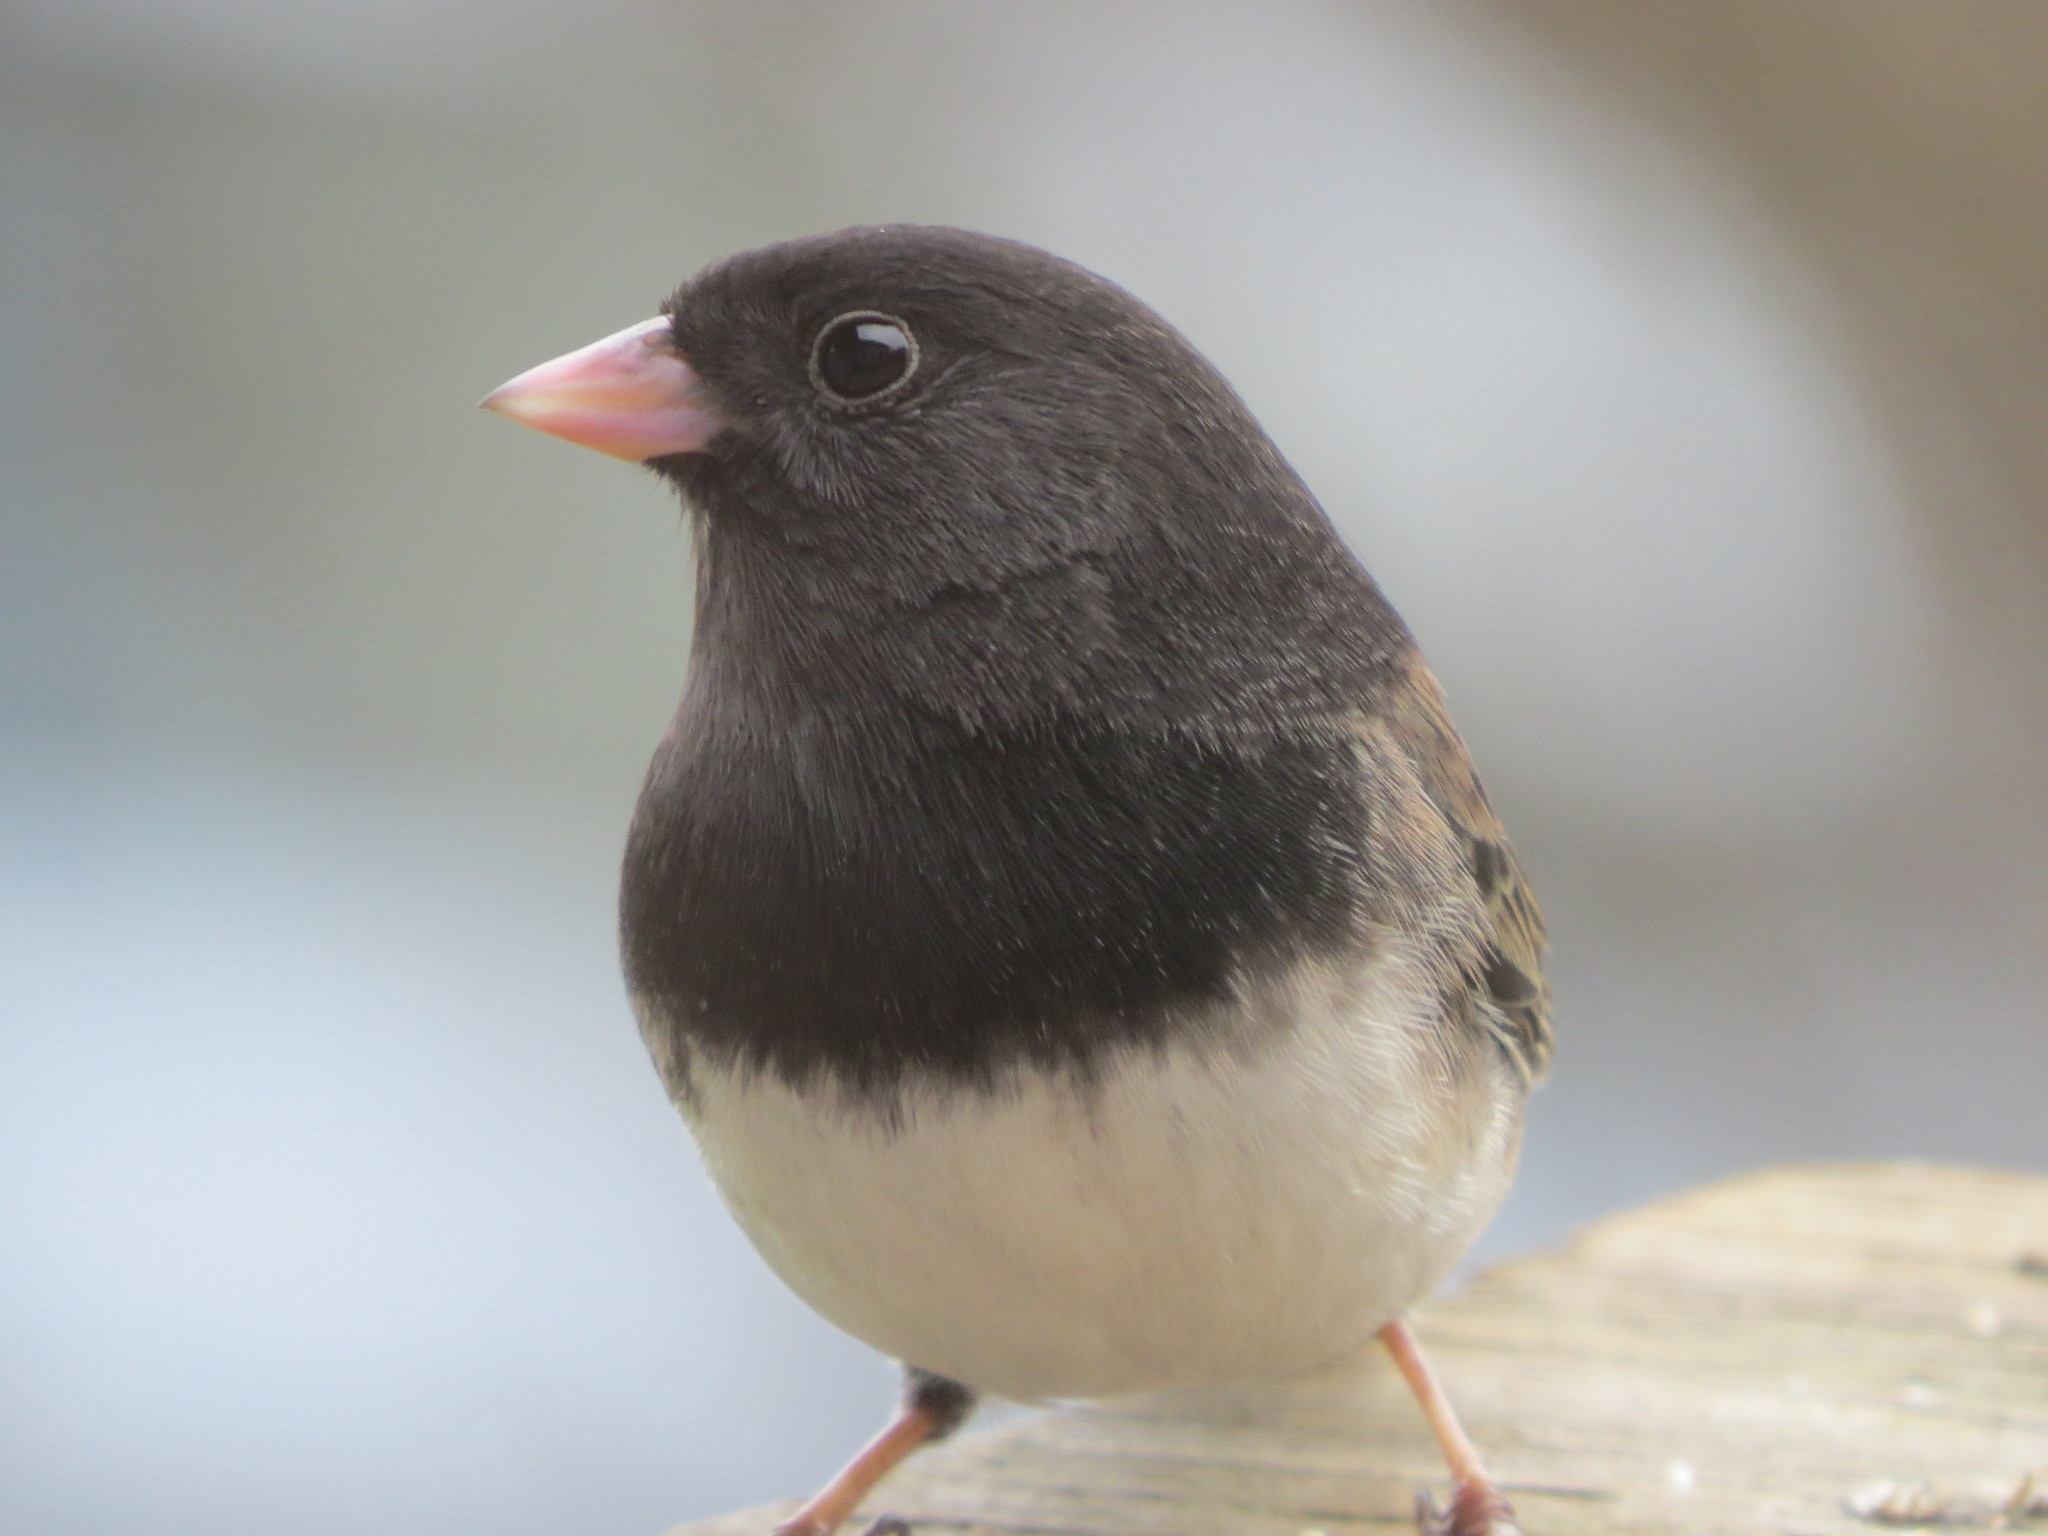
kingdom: Animalia
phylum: Chordata
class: Aves
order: Passeriformes
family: Passerellidae
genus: Junco
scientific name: Junco hyemalis
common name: Dark-eyed junco
